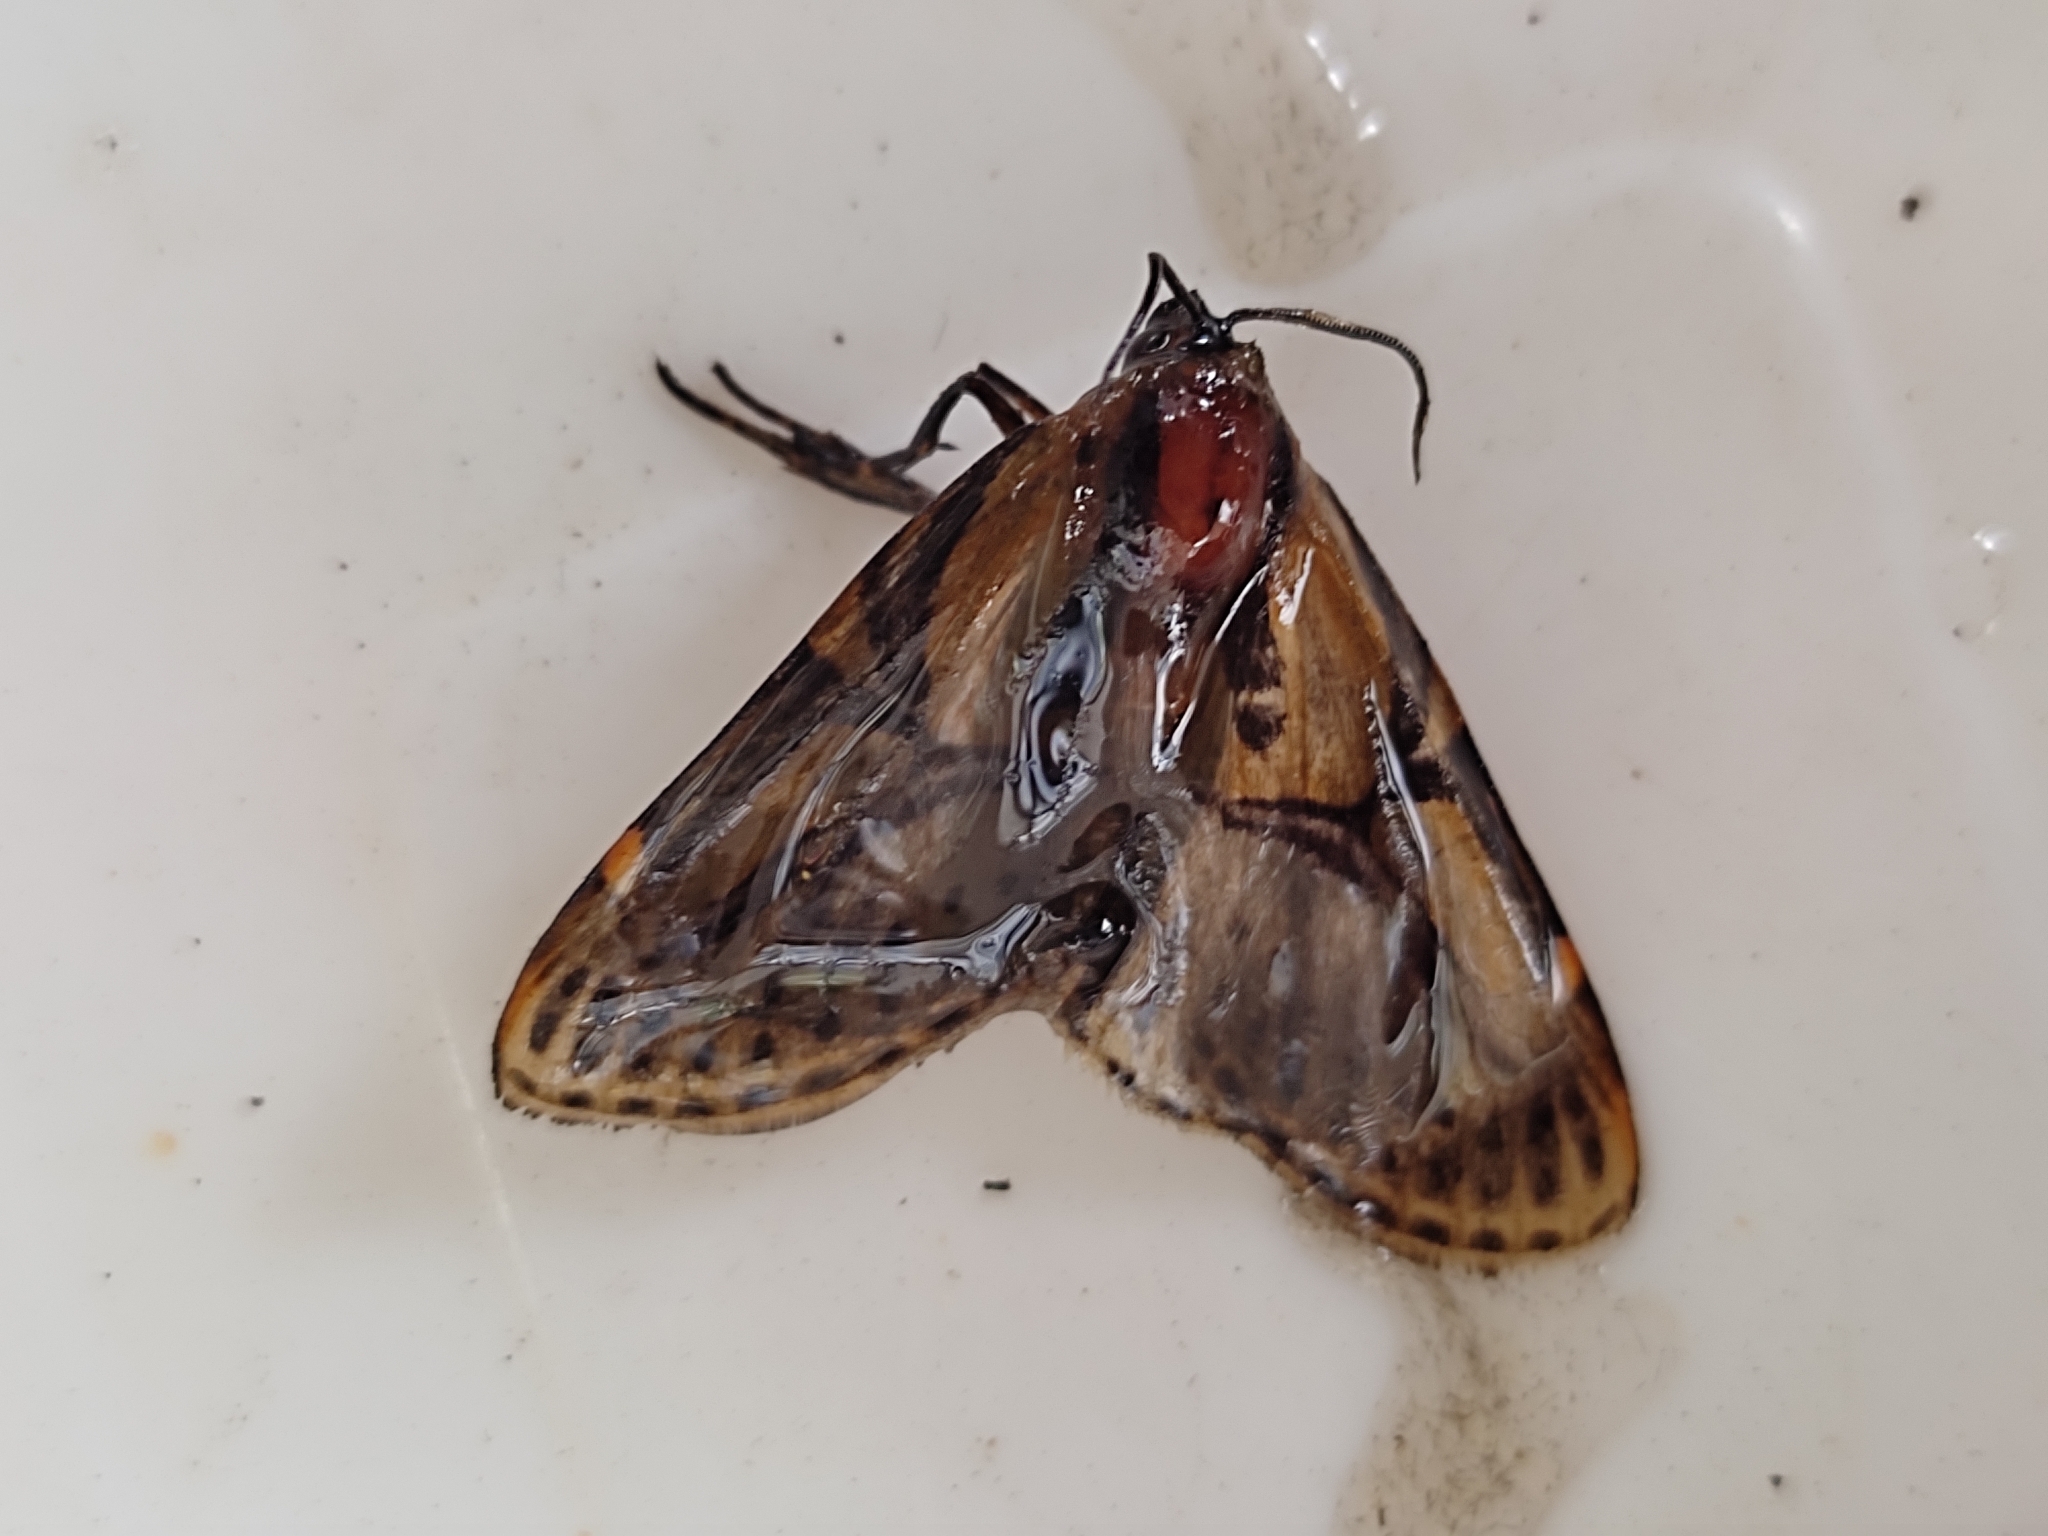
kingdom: Animalia
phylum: Arthropoda
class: Insecta
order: Lepidoptera
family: Erebidae
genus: Diphthera
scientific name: Diphthera festiva
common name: Hieroglyphic moth
